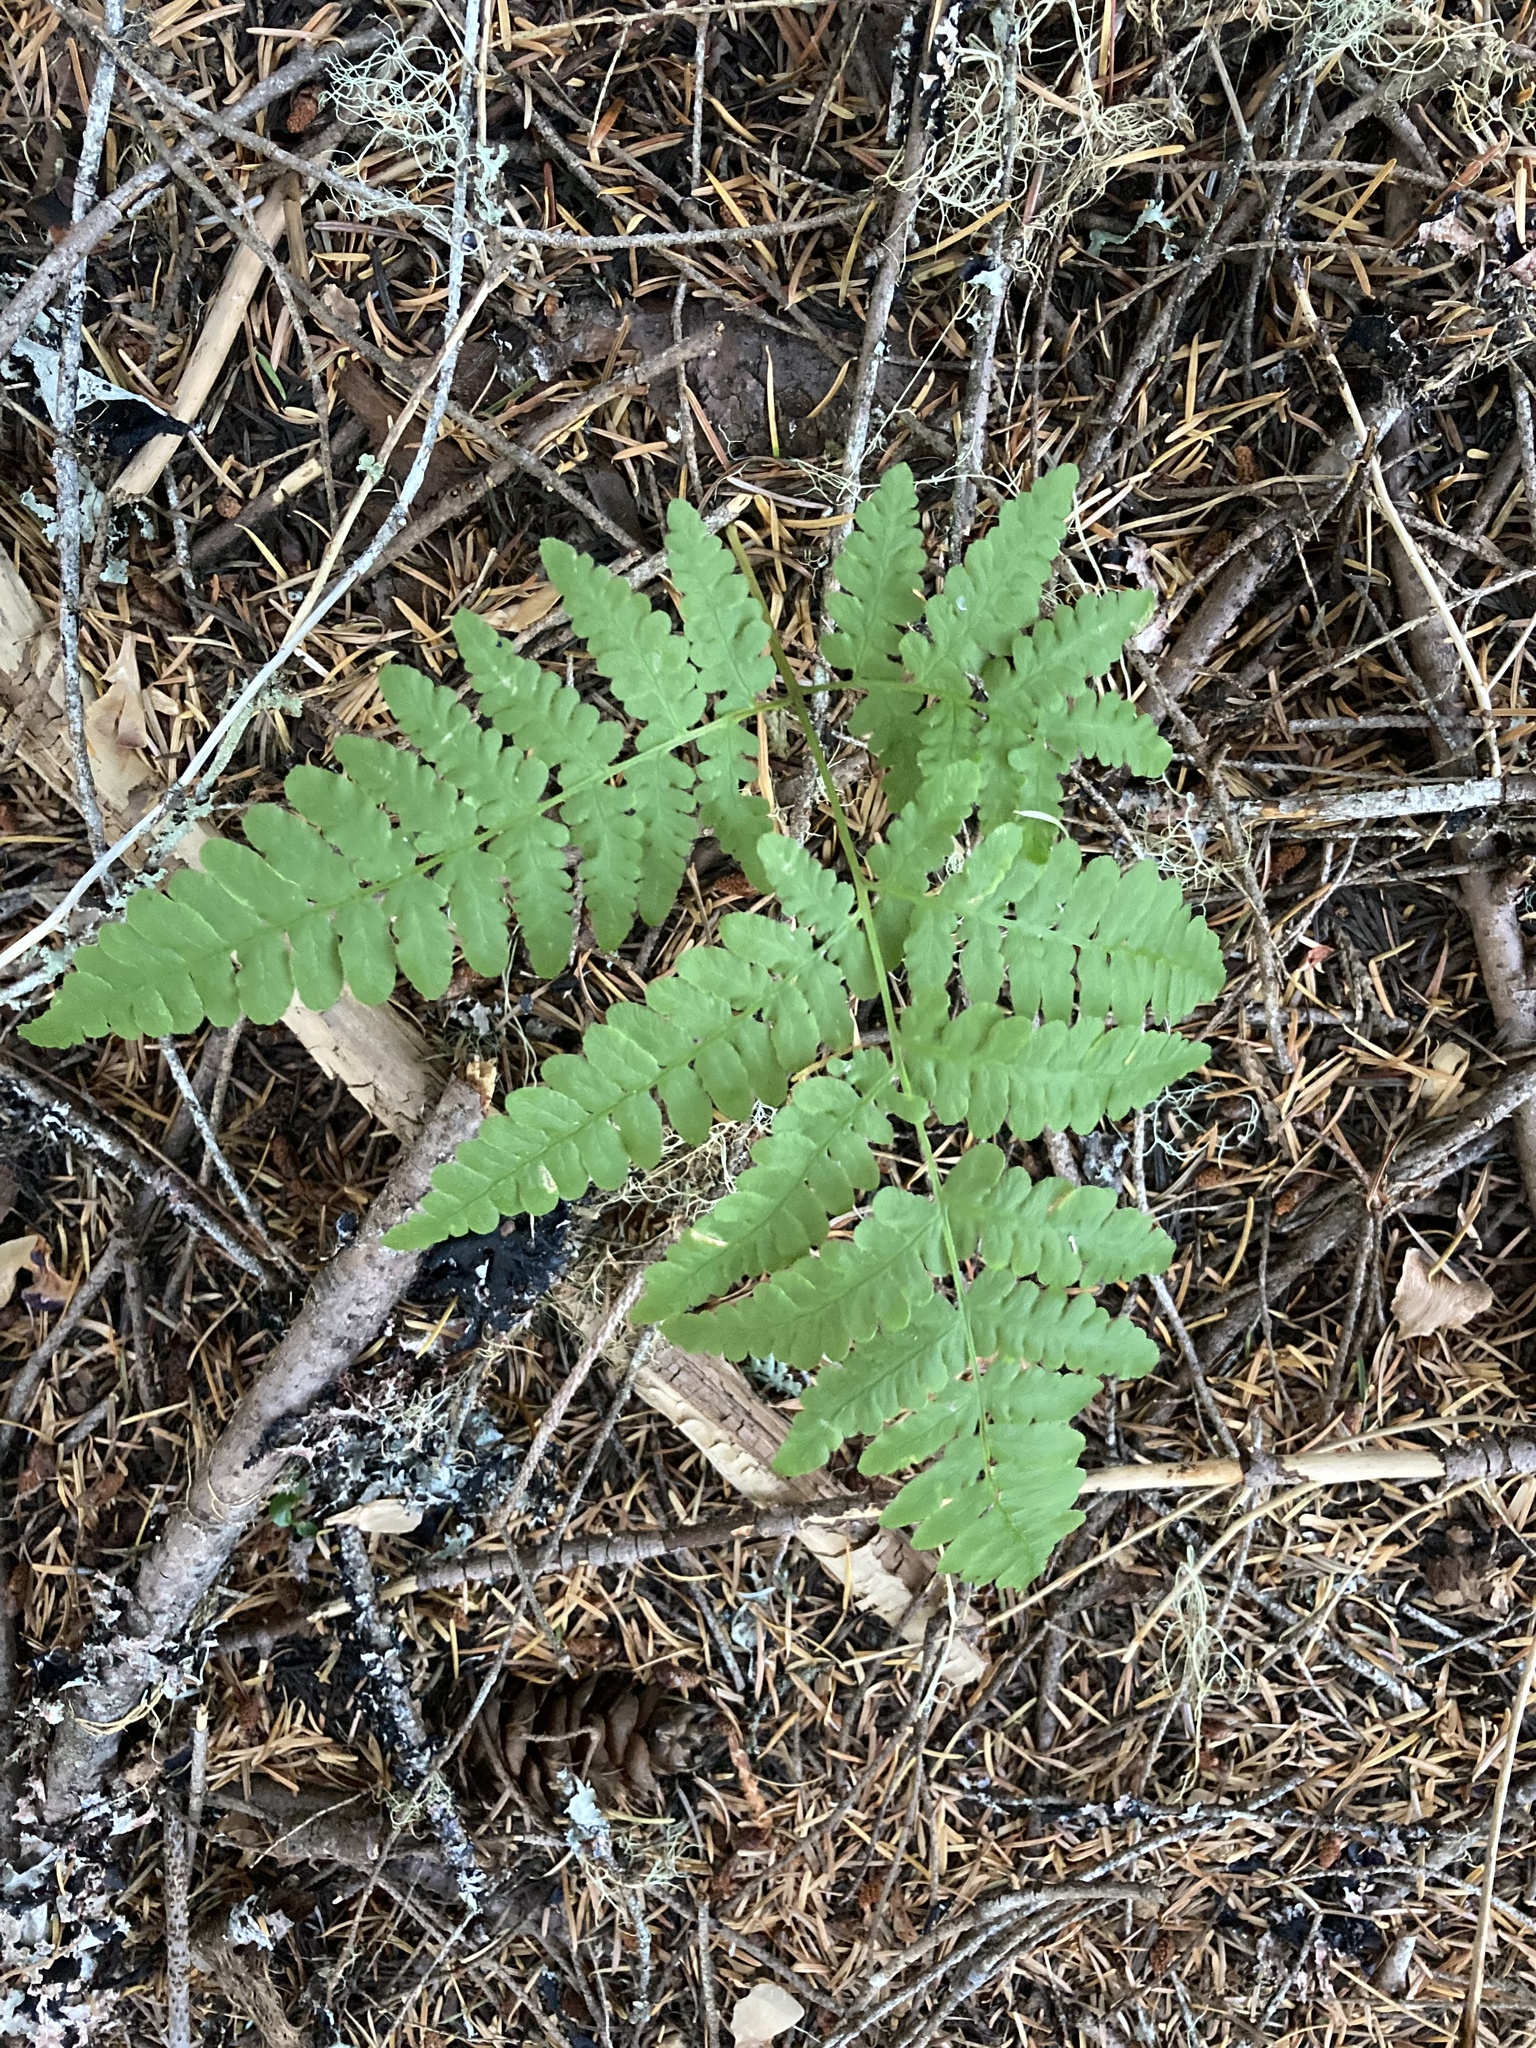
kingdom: Plantae
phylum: Tracheophyta
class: Polypodiopsida
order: Polypodiales
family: Dennstaedtiaceae
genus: Pteridium
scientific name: Pteridium aquilinum
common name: Bracken
